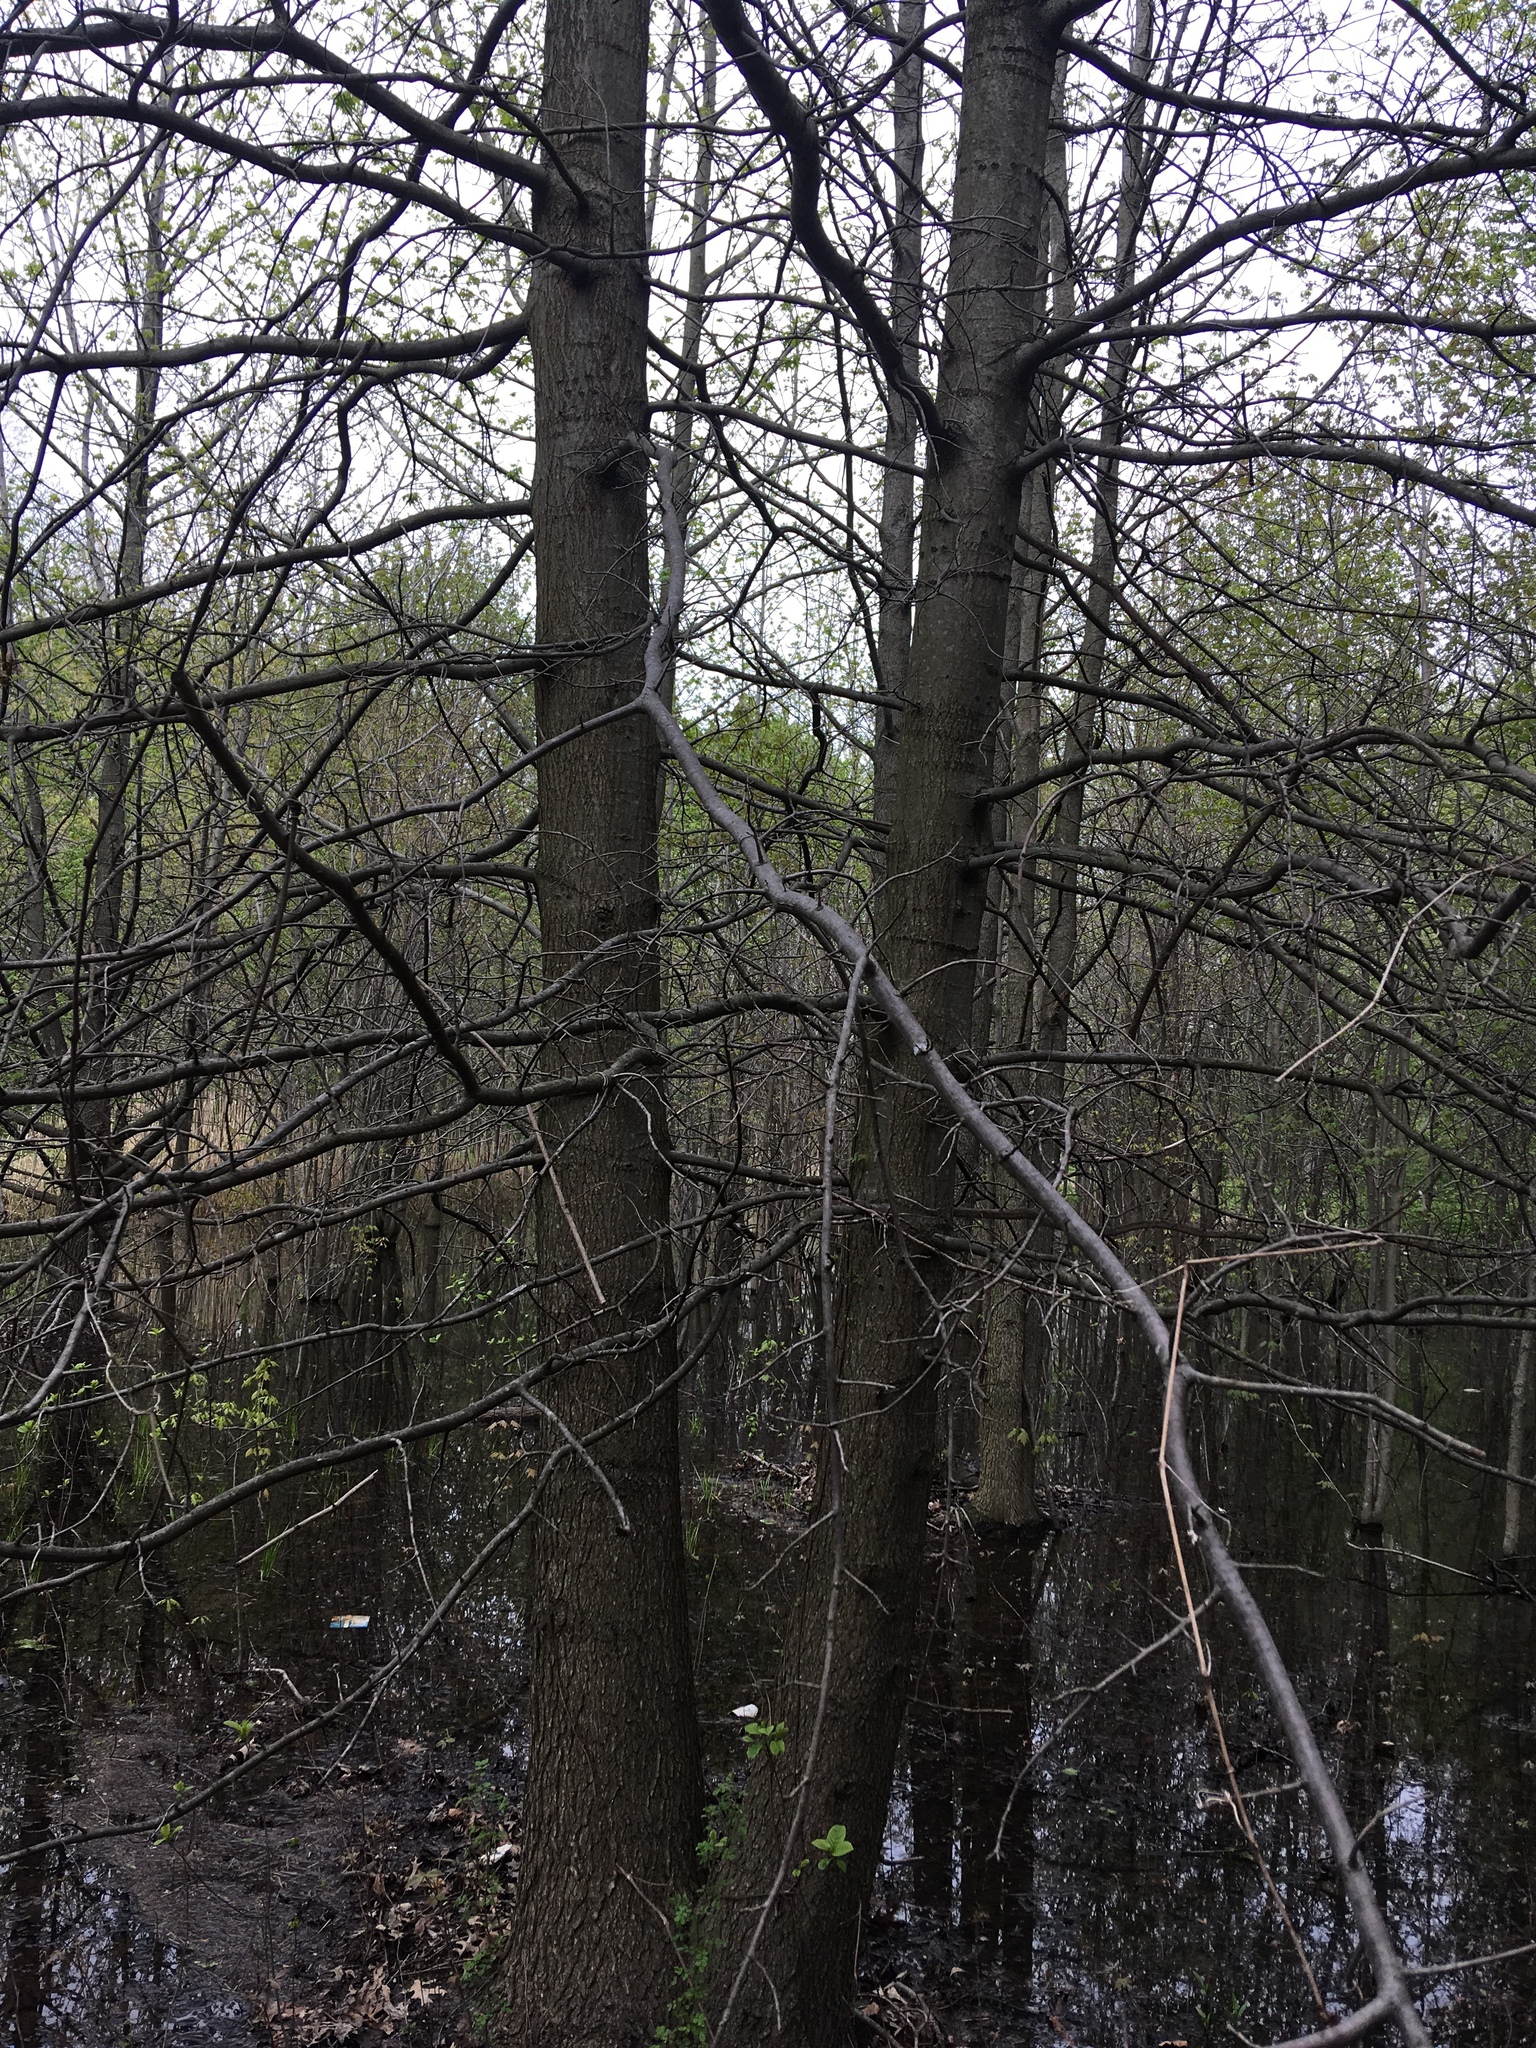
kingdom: Plantae
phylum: Tracheophyta
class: Magnoliopsida
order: Fagales
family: Fagaceae
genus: Quercus
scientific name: Quercus palustris
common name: Pin oak
